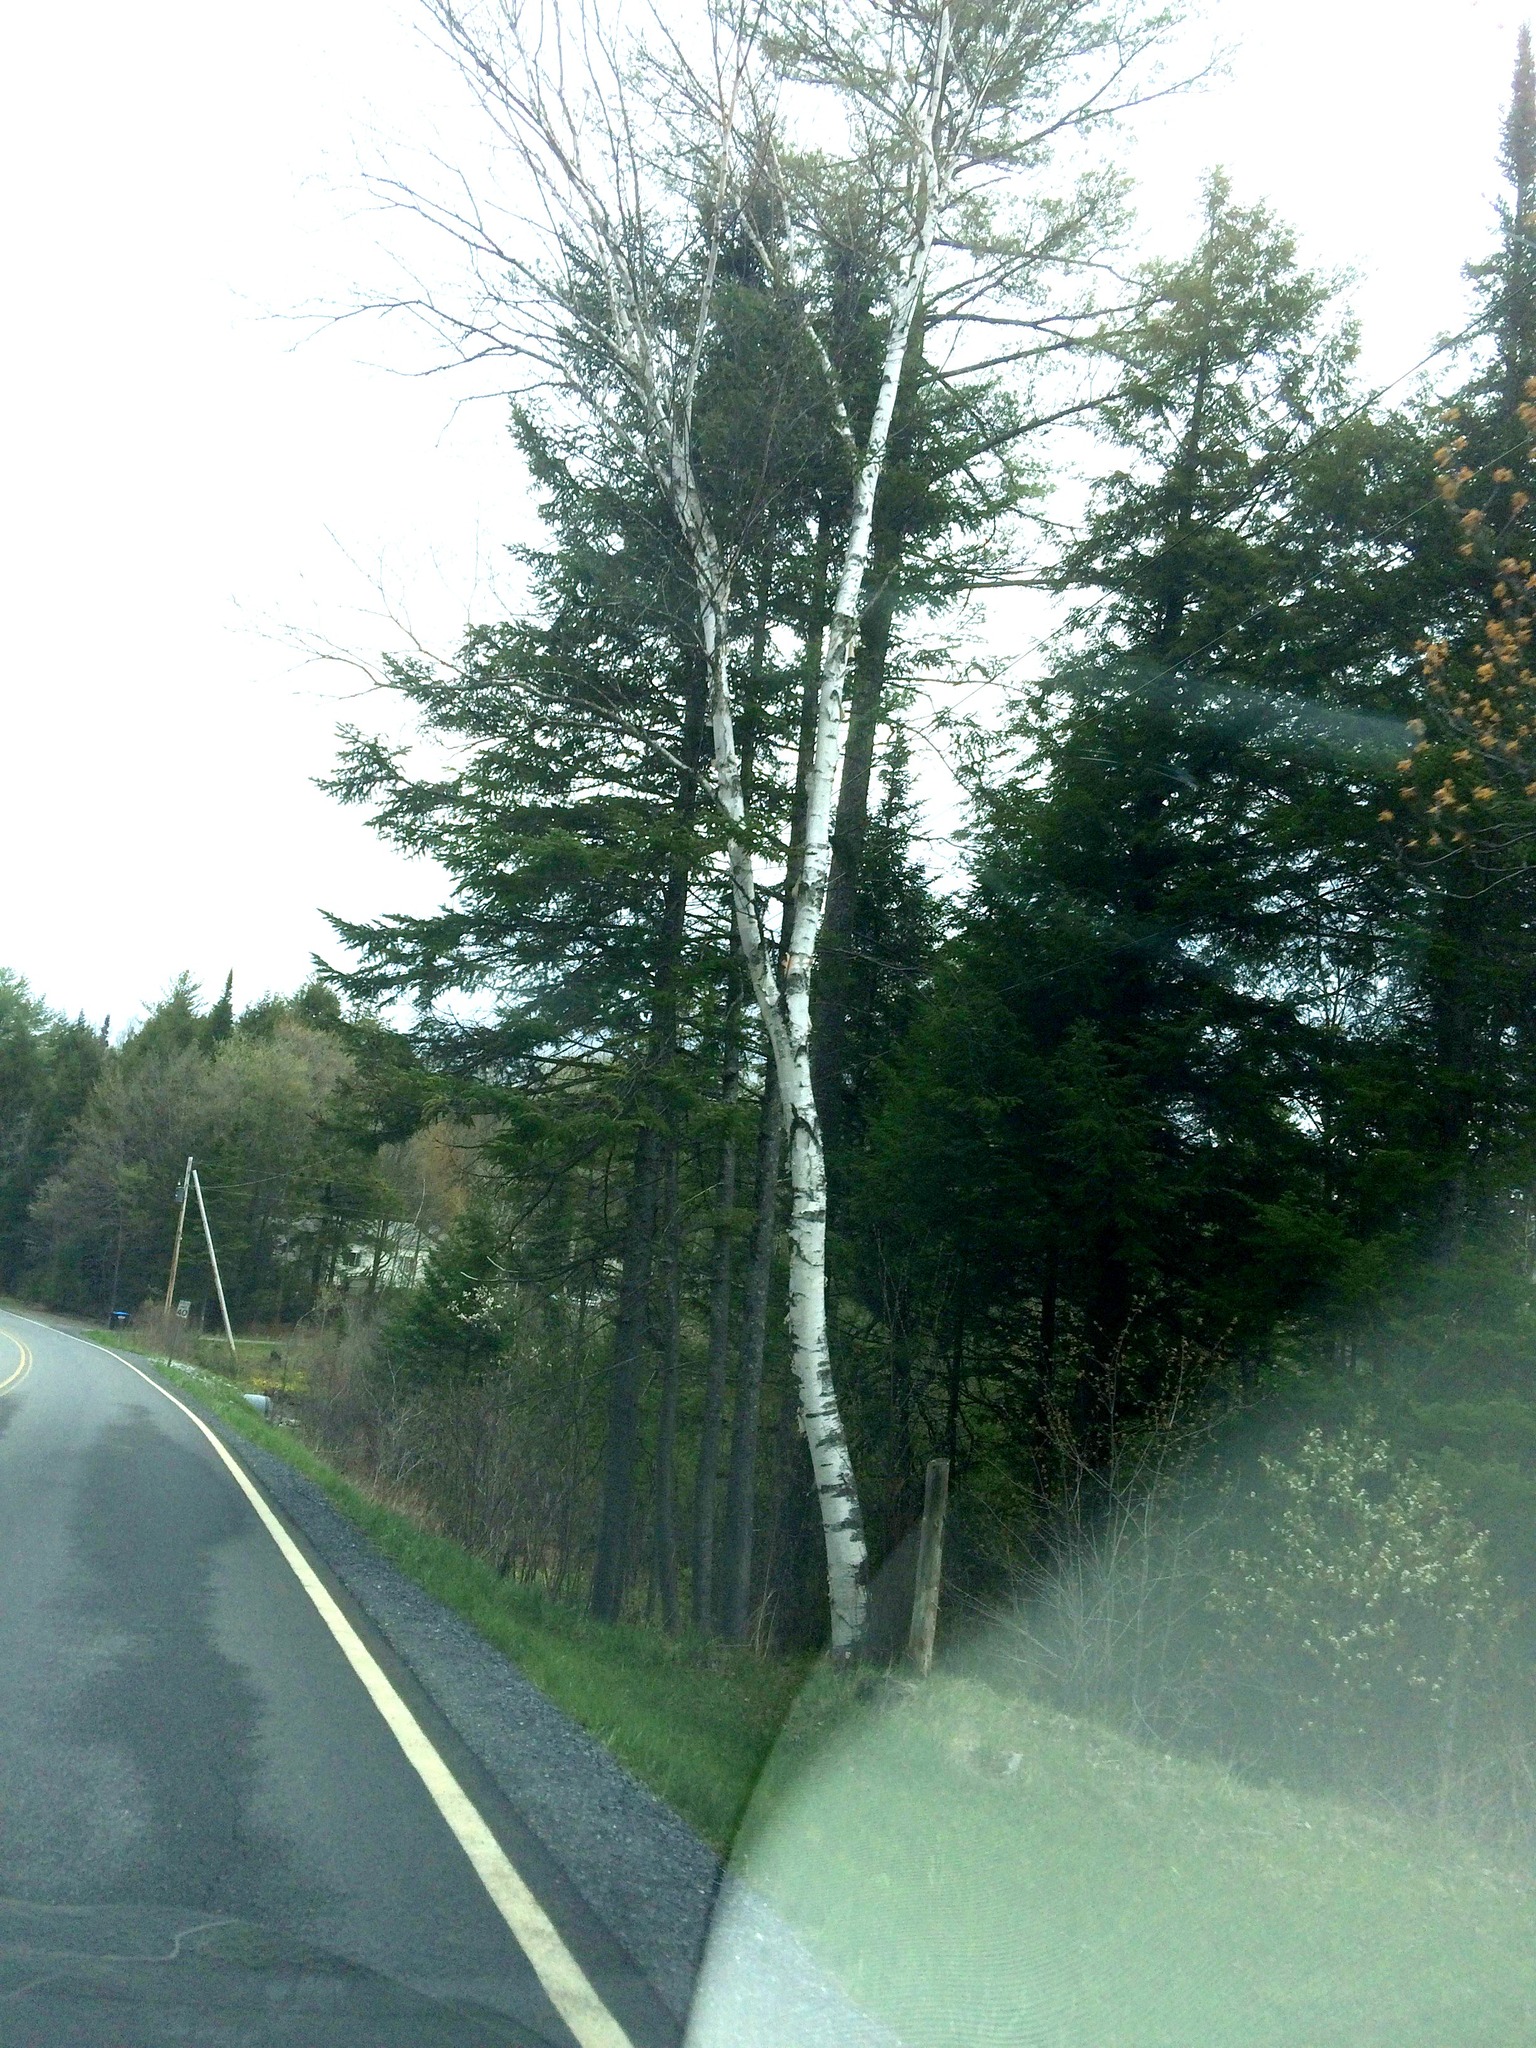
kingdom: Plantae
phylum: Tracheophyta
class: Magnoliopsida
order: Fagales
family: Betulaceae
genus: Betula
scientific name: Betula papyrifera
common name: Paper birch
